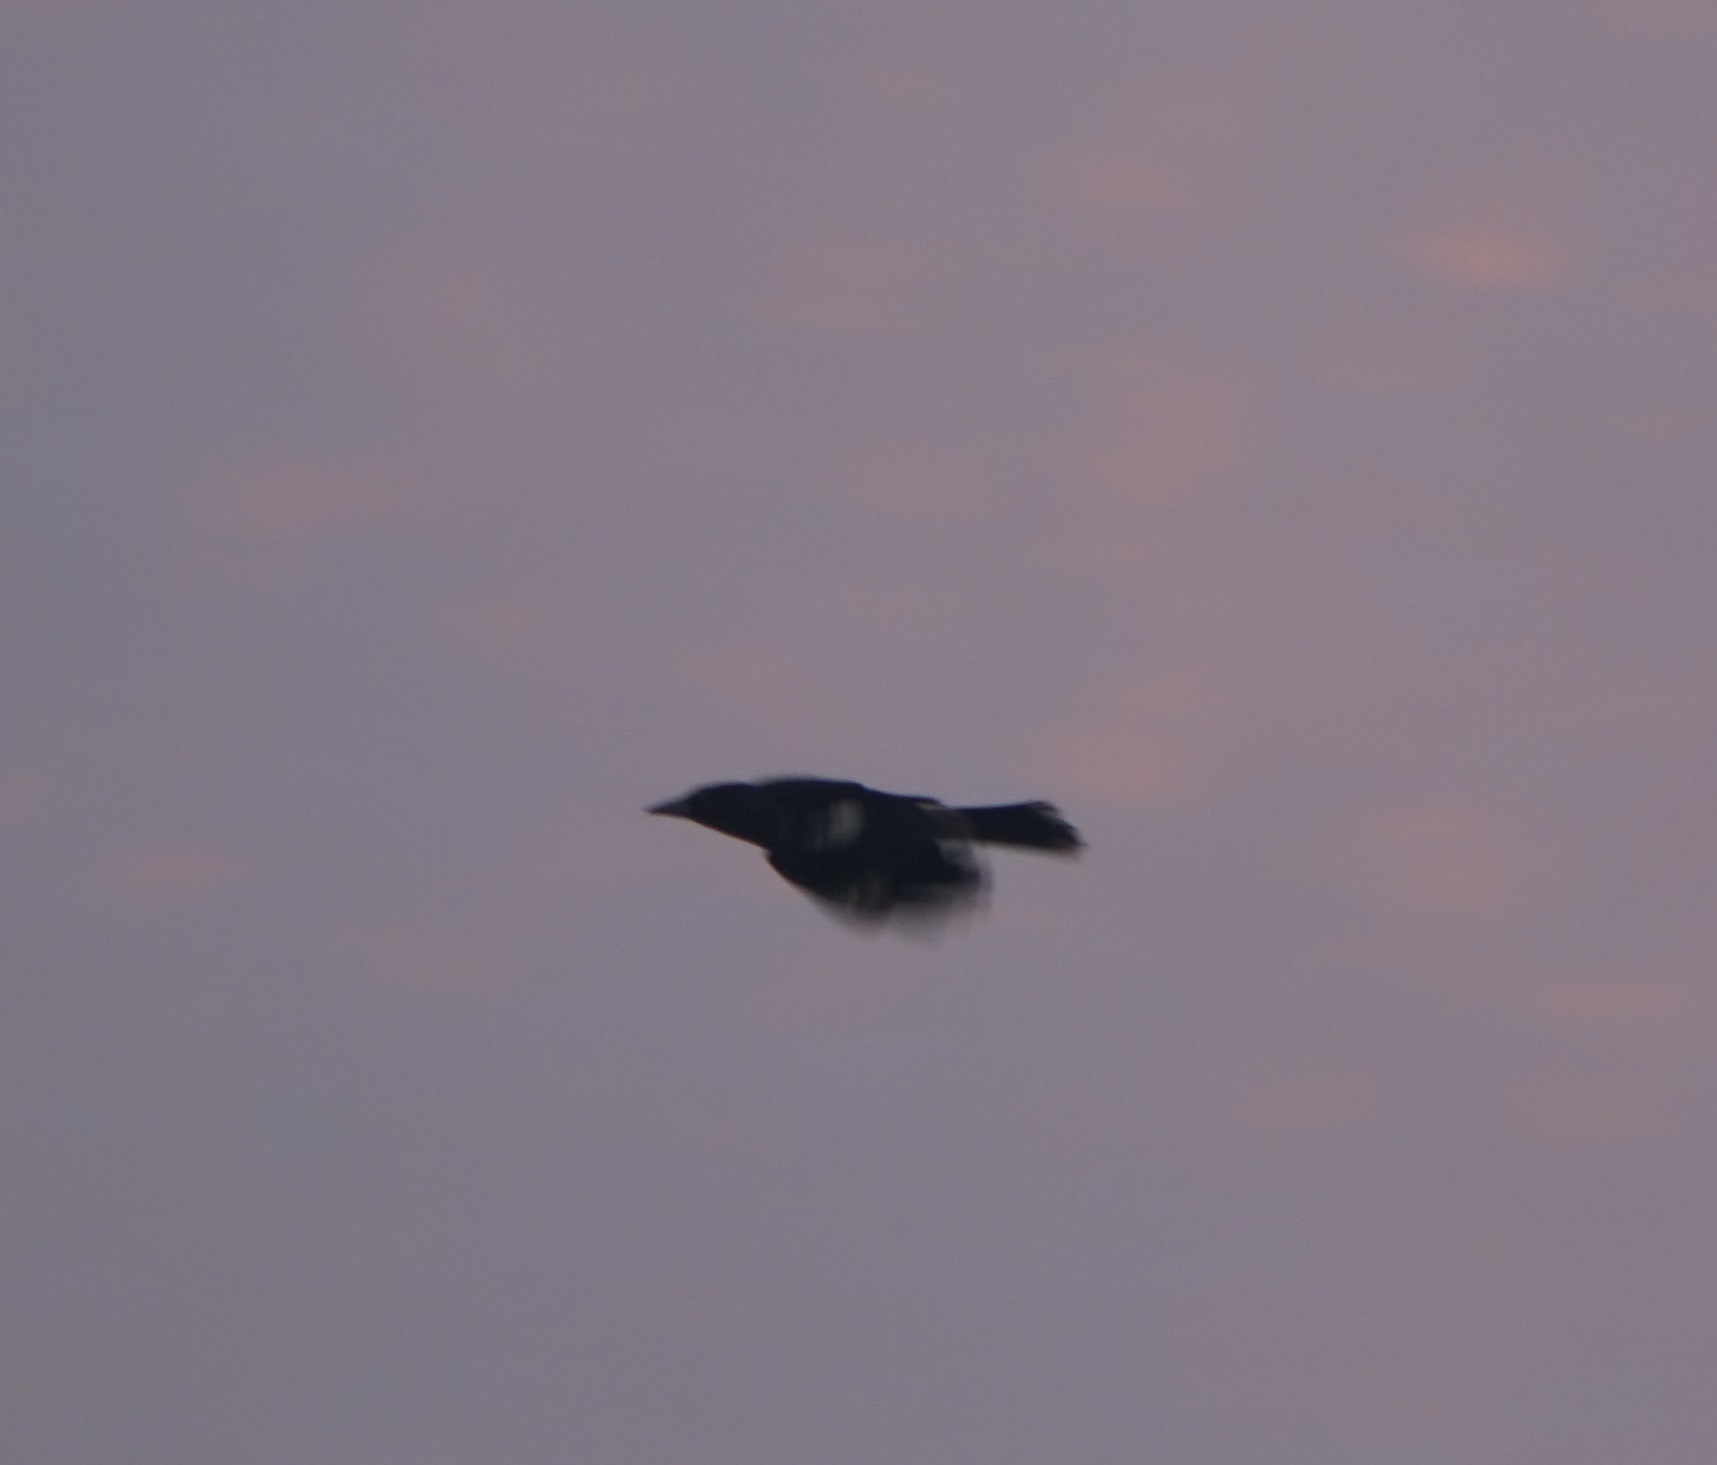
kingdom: Animalia
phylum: Chordata
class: Aves
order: Passeriformes
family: Cracticidae
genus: Strepera
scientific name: Strepera graculina
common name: Pied currawong
